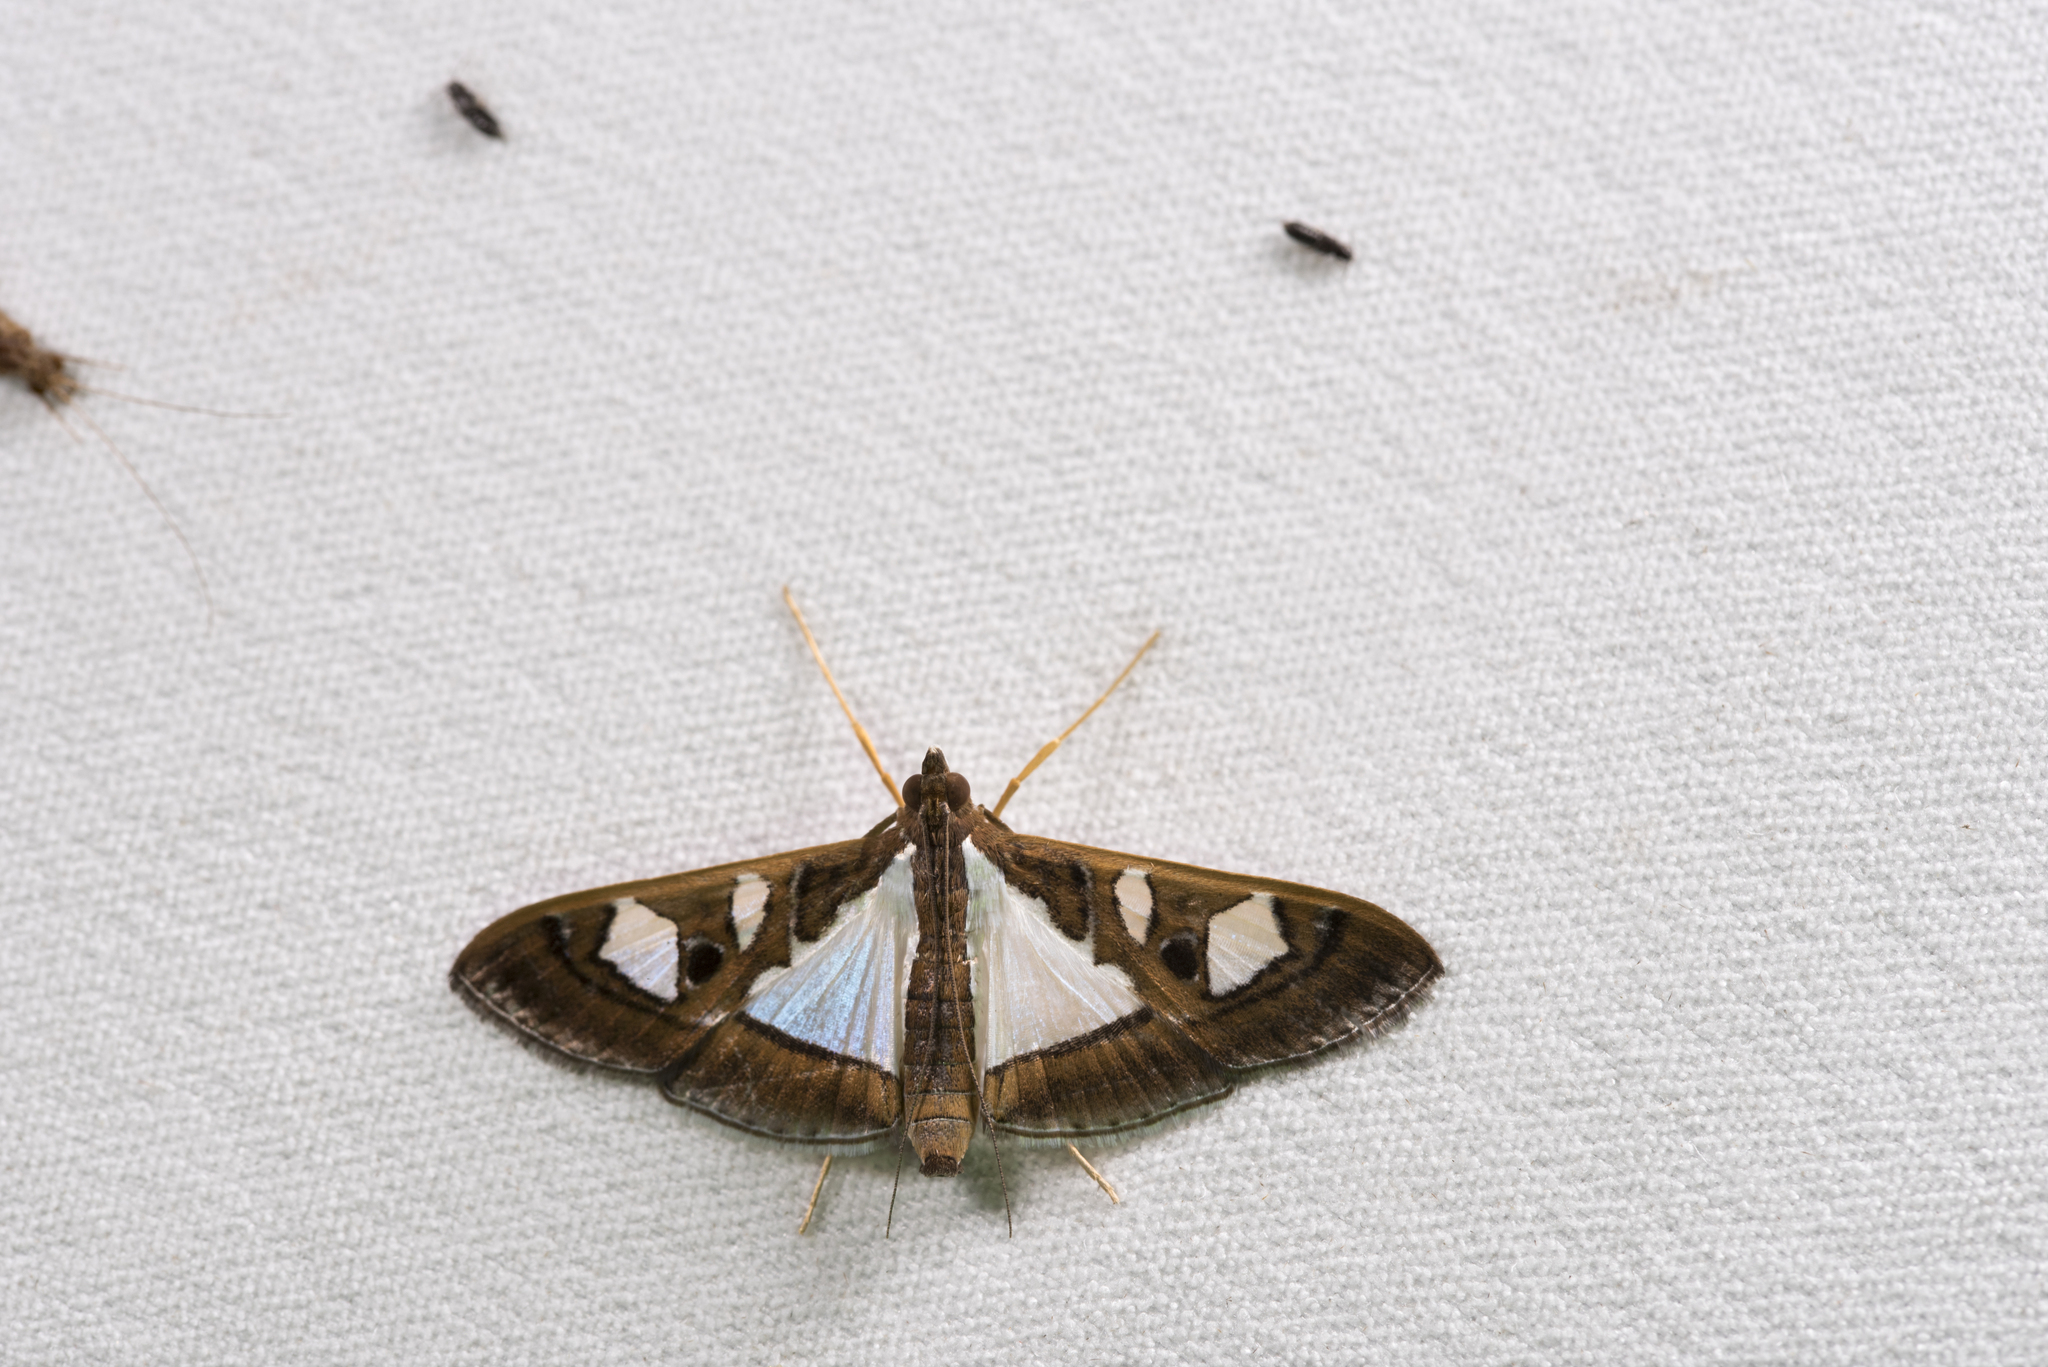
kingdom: Animalia
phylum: Arthropoda
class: Insecta
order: Lepidoptera
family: Crambidae
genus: Glyphodes
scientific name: Glyphodes bivitralis
